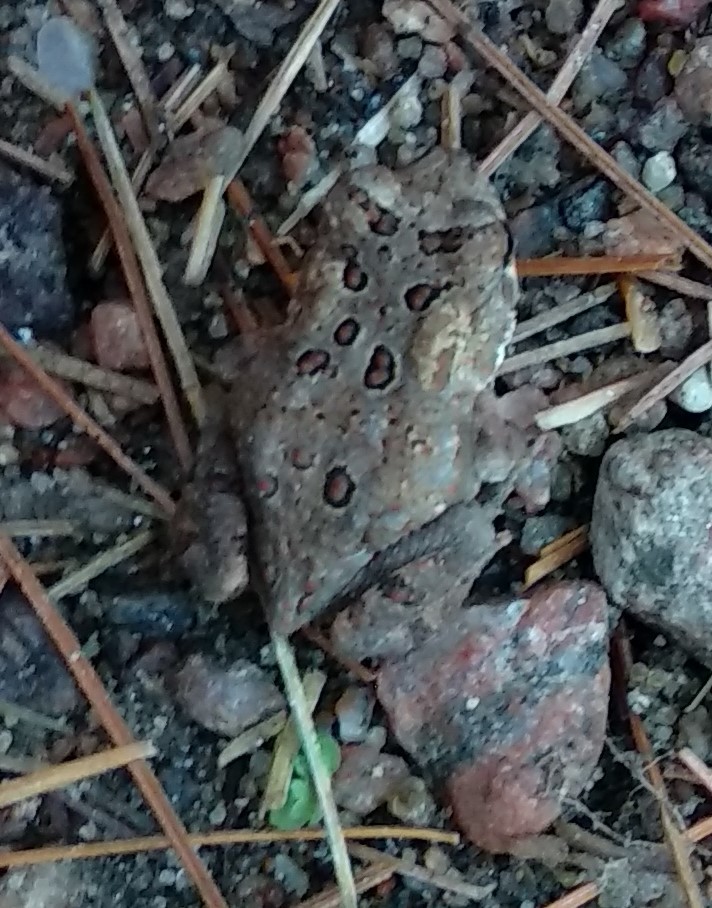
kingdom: Animalia
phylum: Chordata
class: Amphibia
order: Anura
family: Bufonidae
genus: Anaxyrus
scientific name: Anaxyrus americanus
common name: American toad
